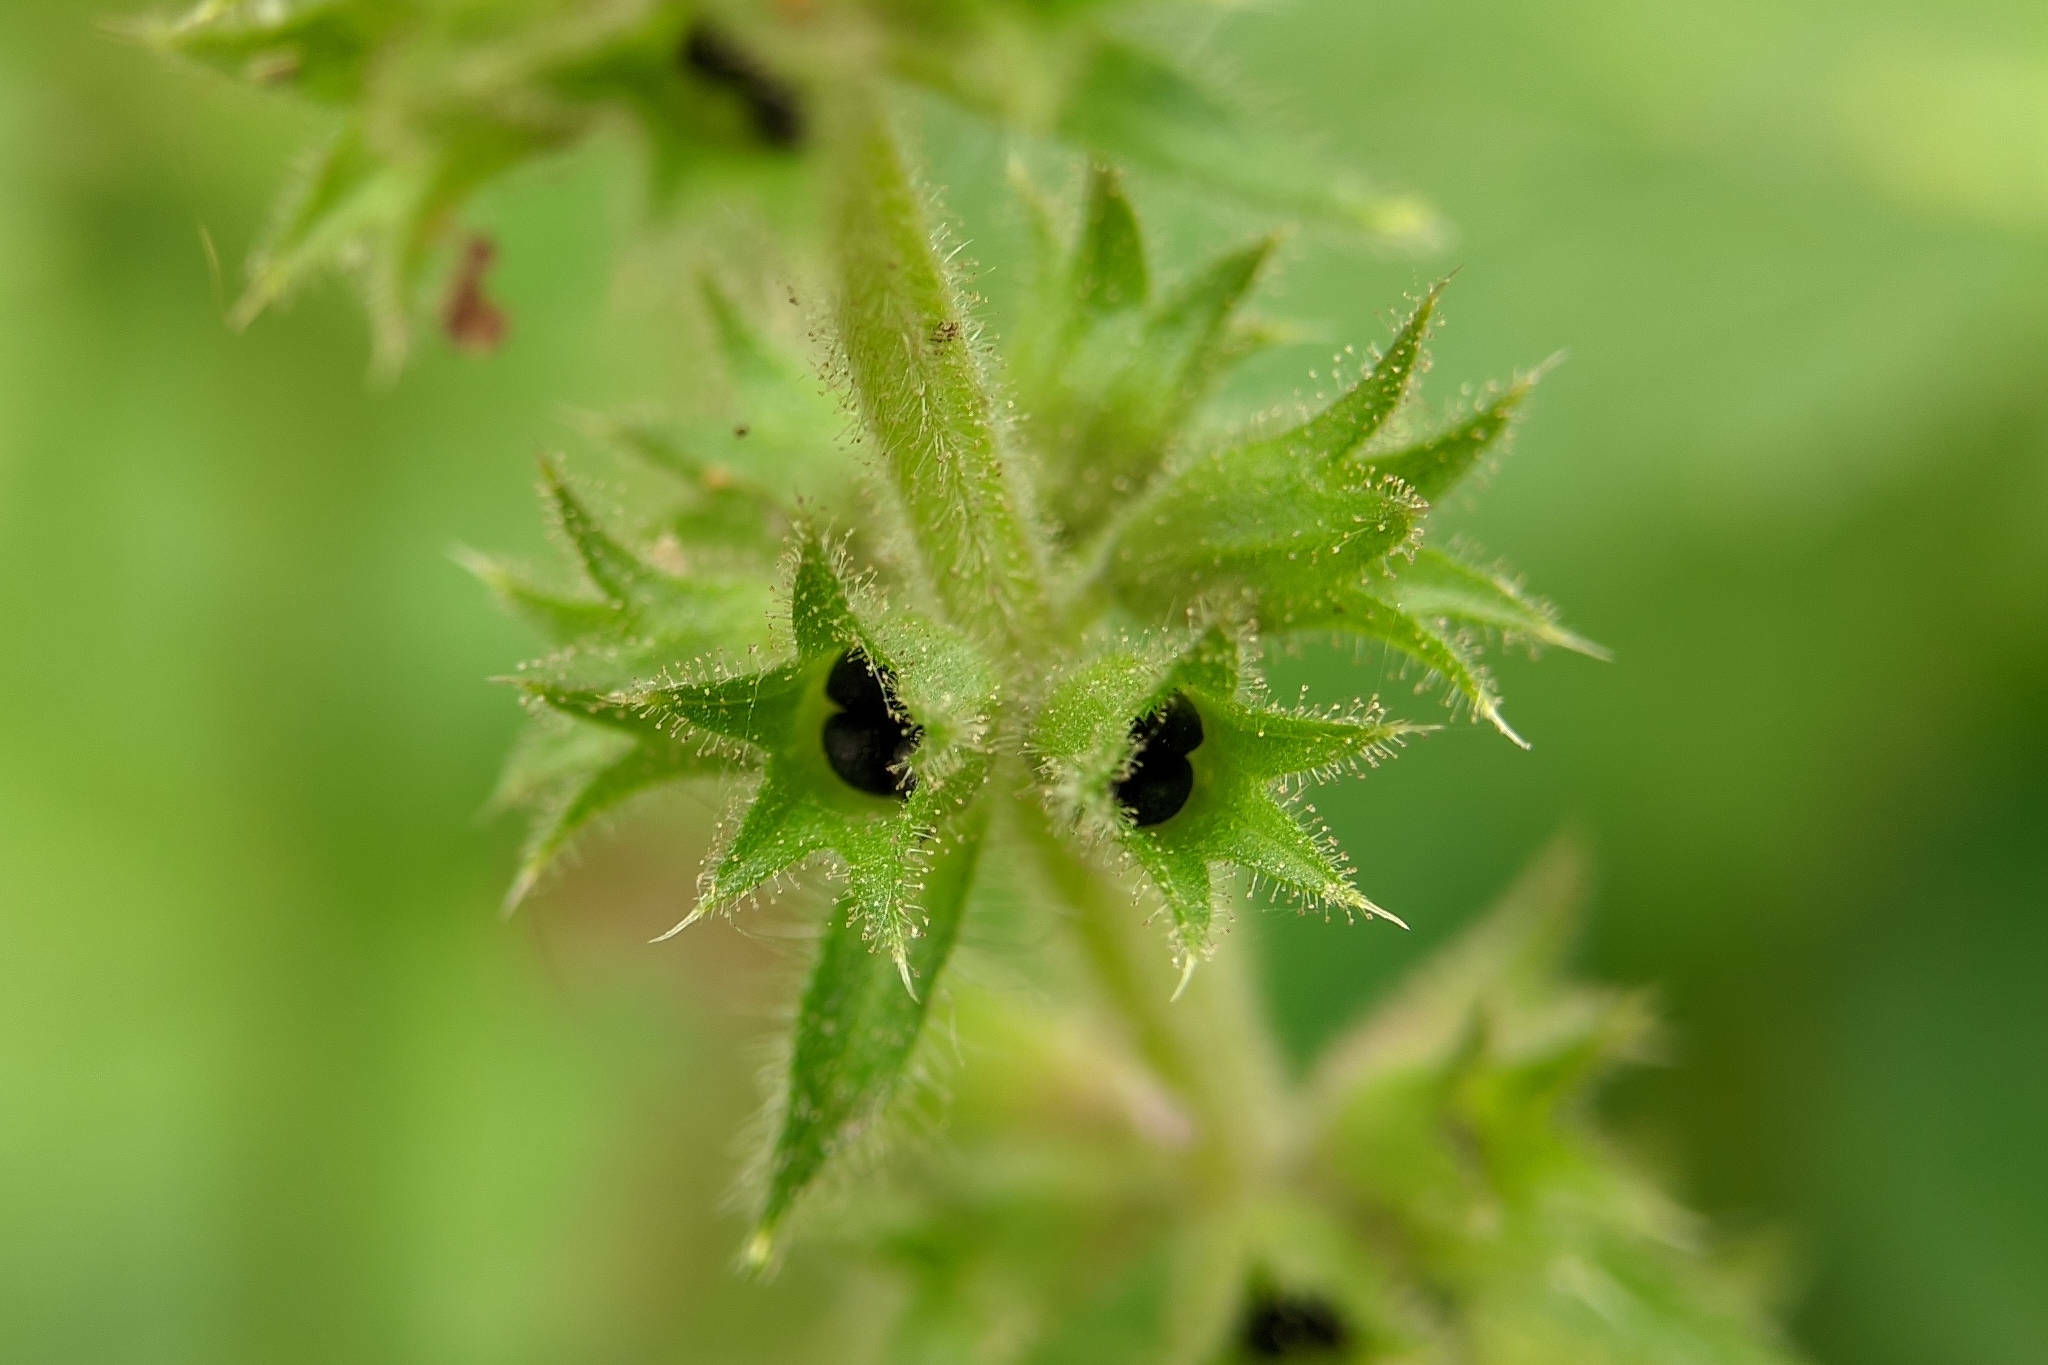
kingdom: Plantae
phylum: Tracheophyta
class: Magnoliopsida
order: Lamiales
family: Lamiaceae
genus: Stachys
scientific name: Stachys sylvatica
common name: Hedge woundwort
